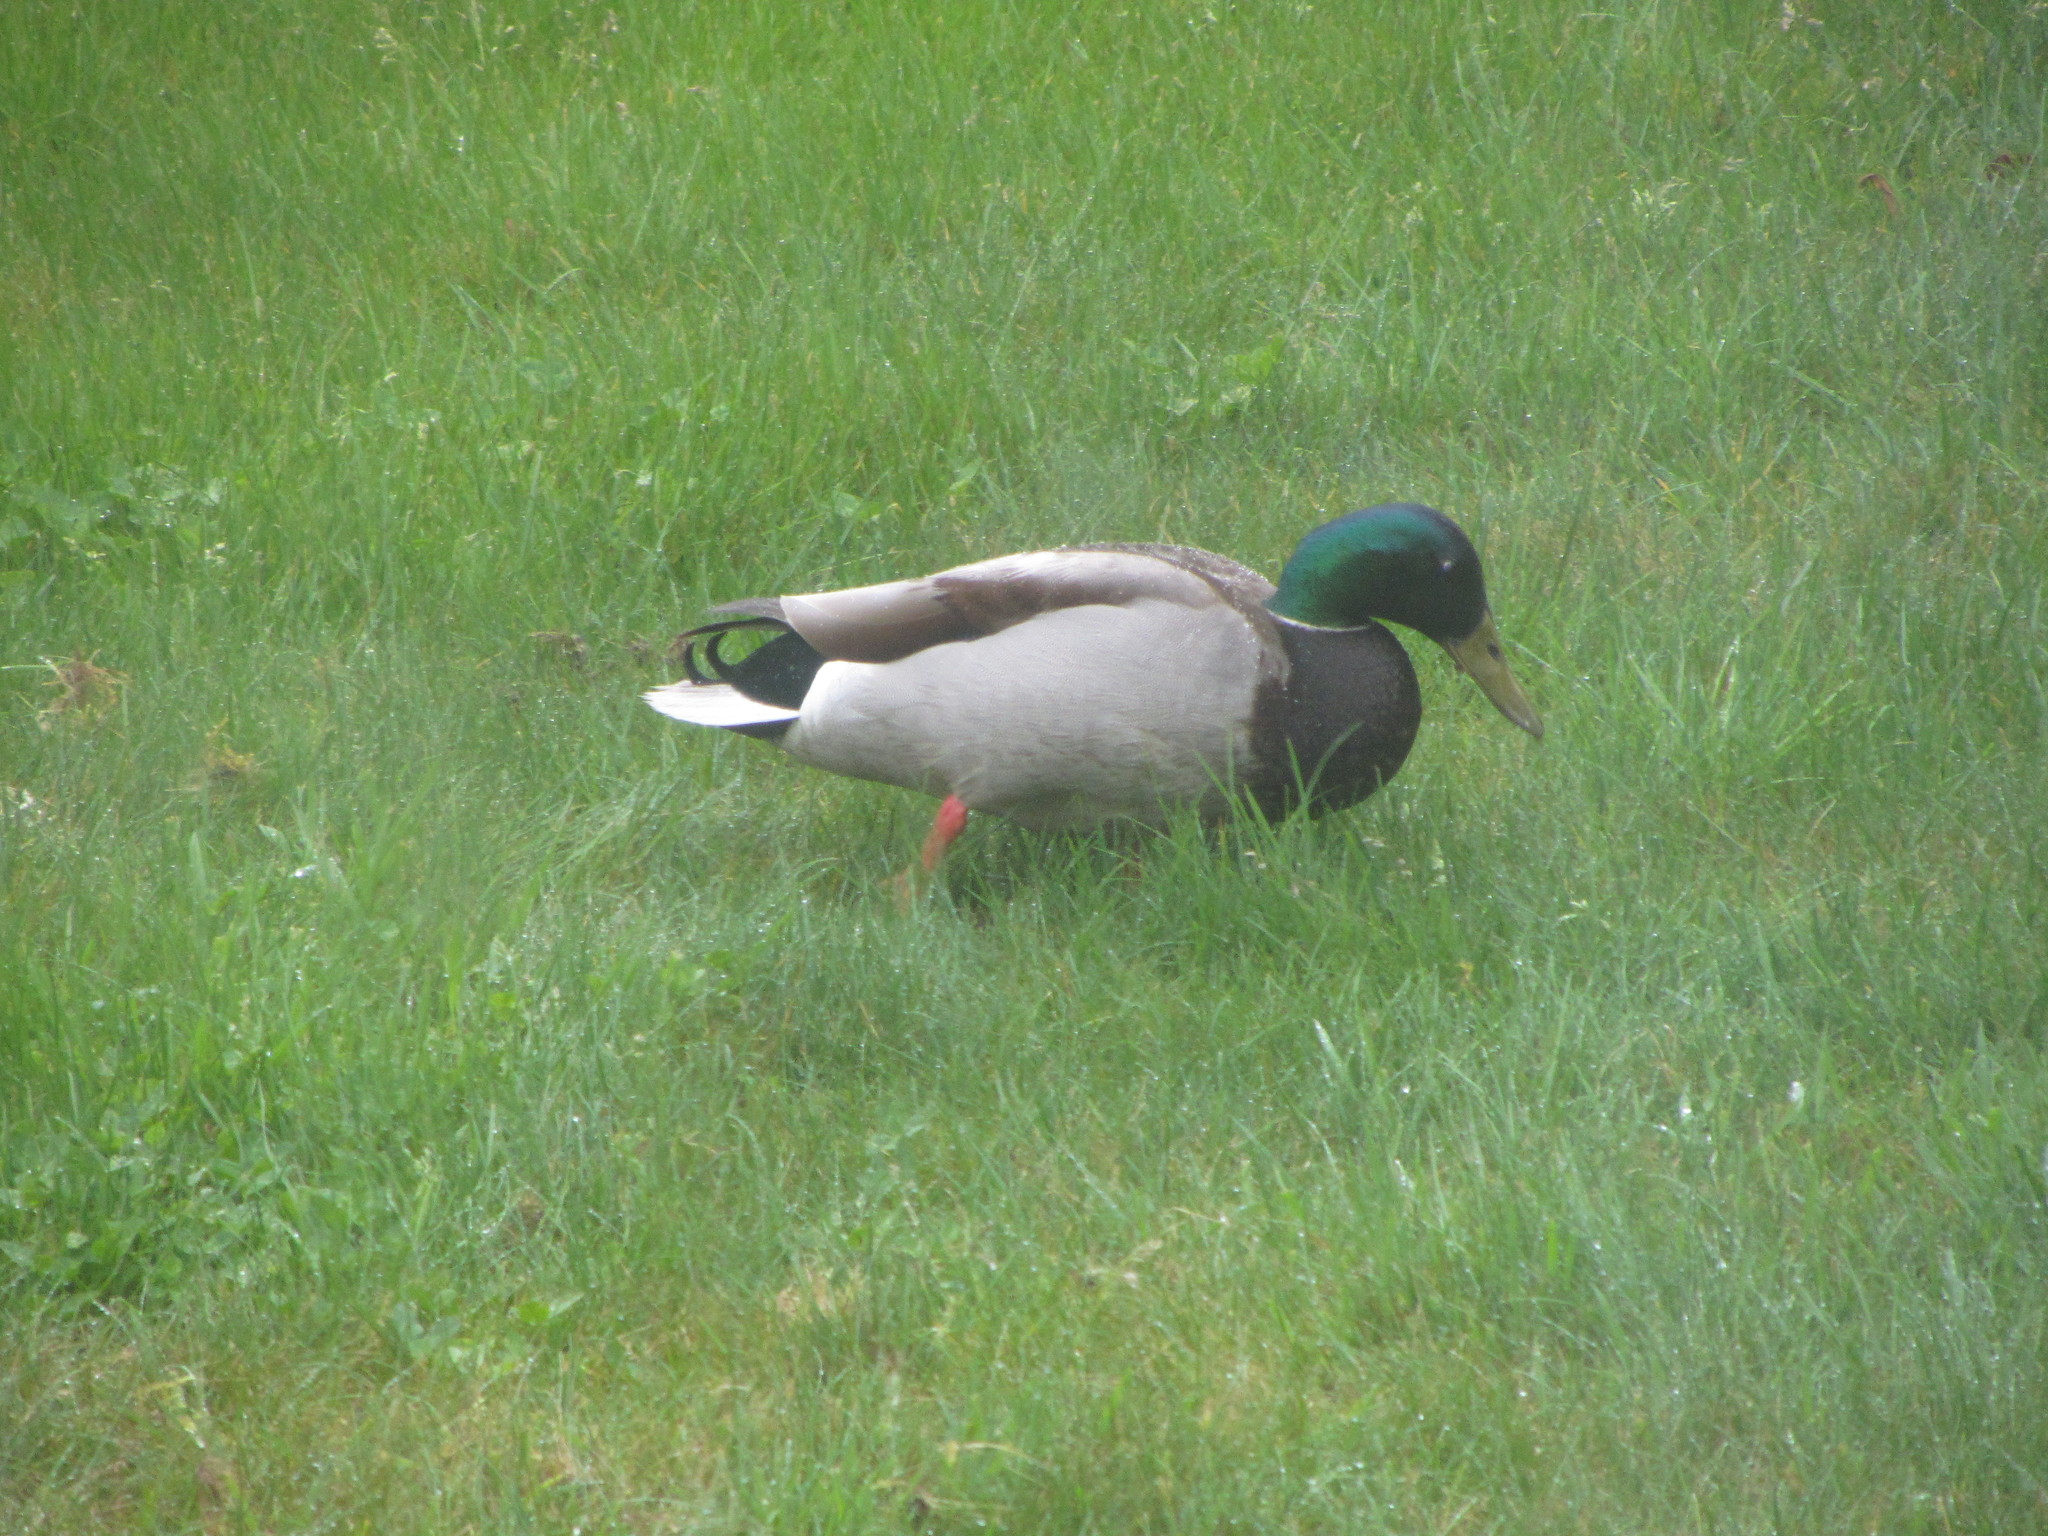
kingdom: Animalia
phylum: Chordata
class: Aves
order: Anseriformes
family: Anatidae
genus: Anas
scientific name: Anas platyrhynchos
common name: Mallard
